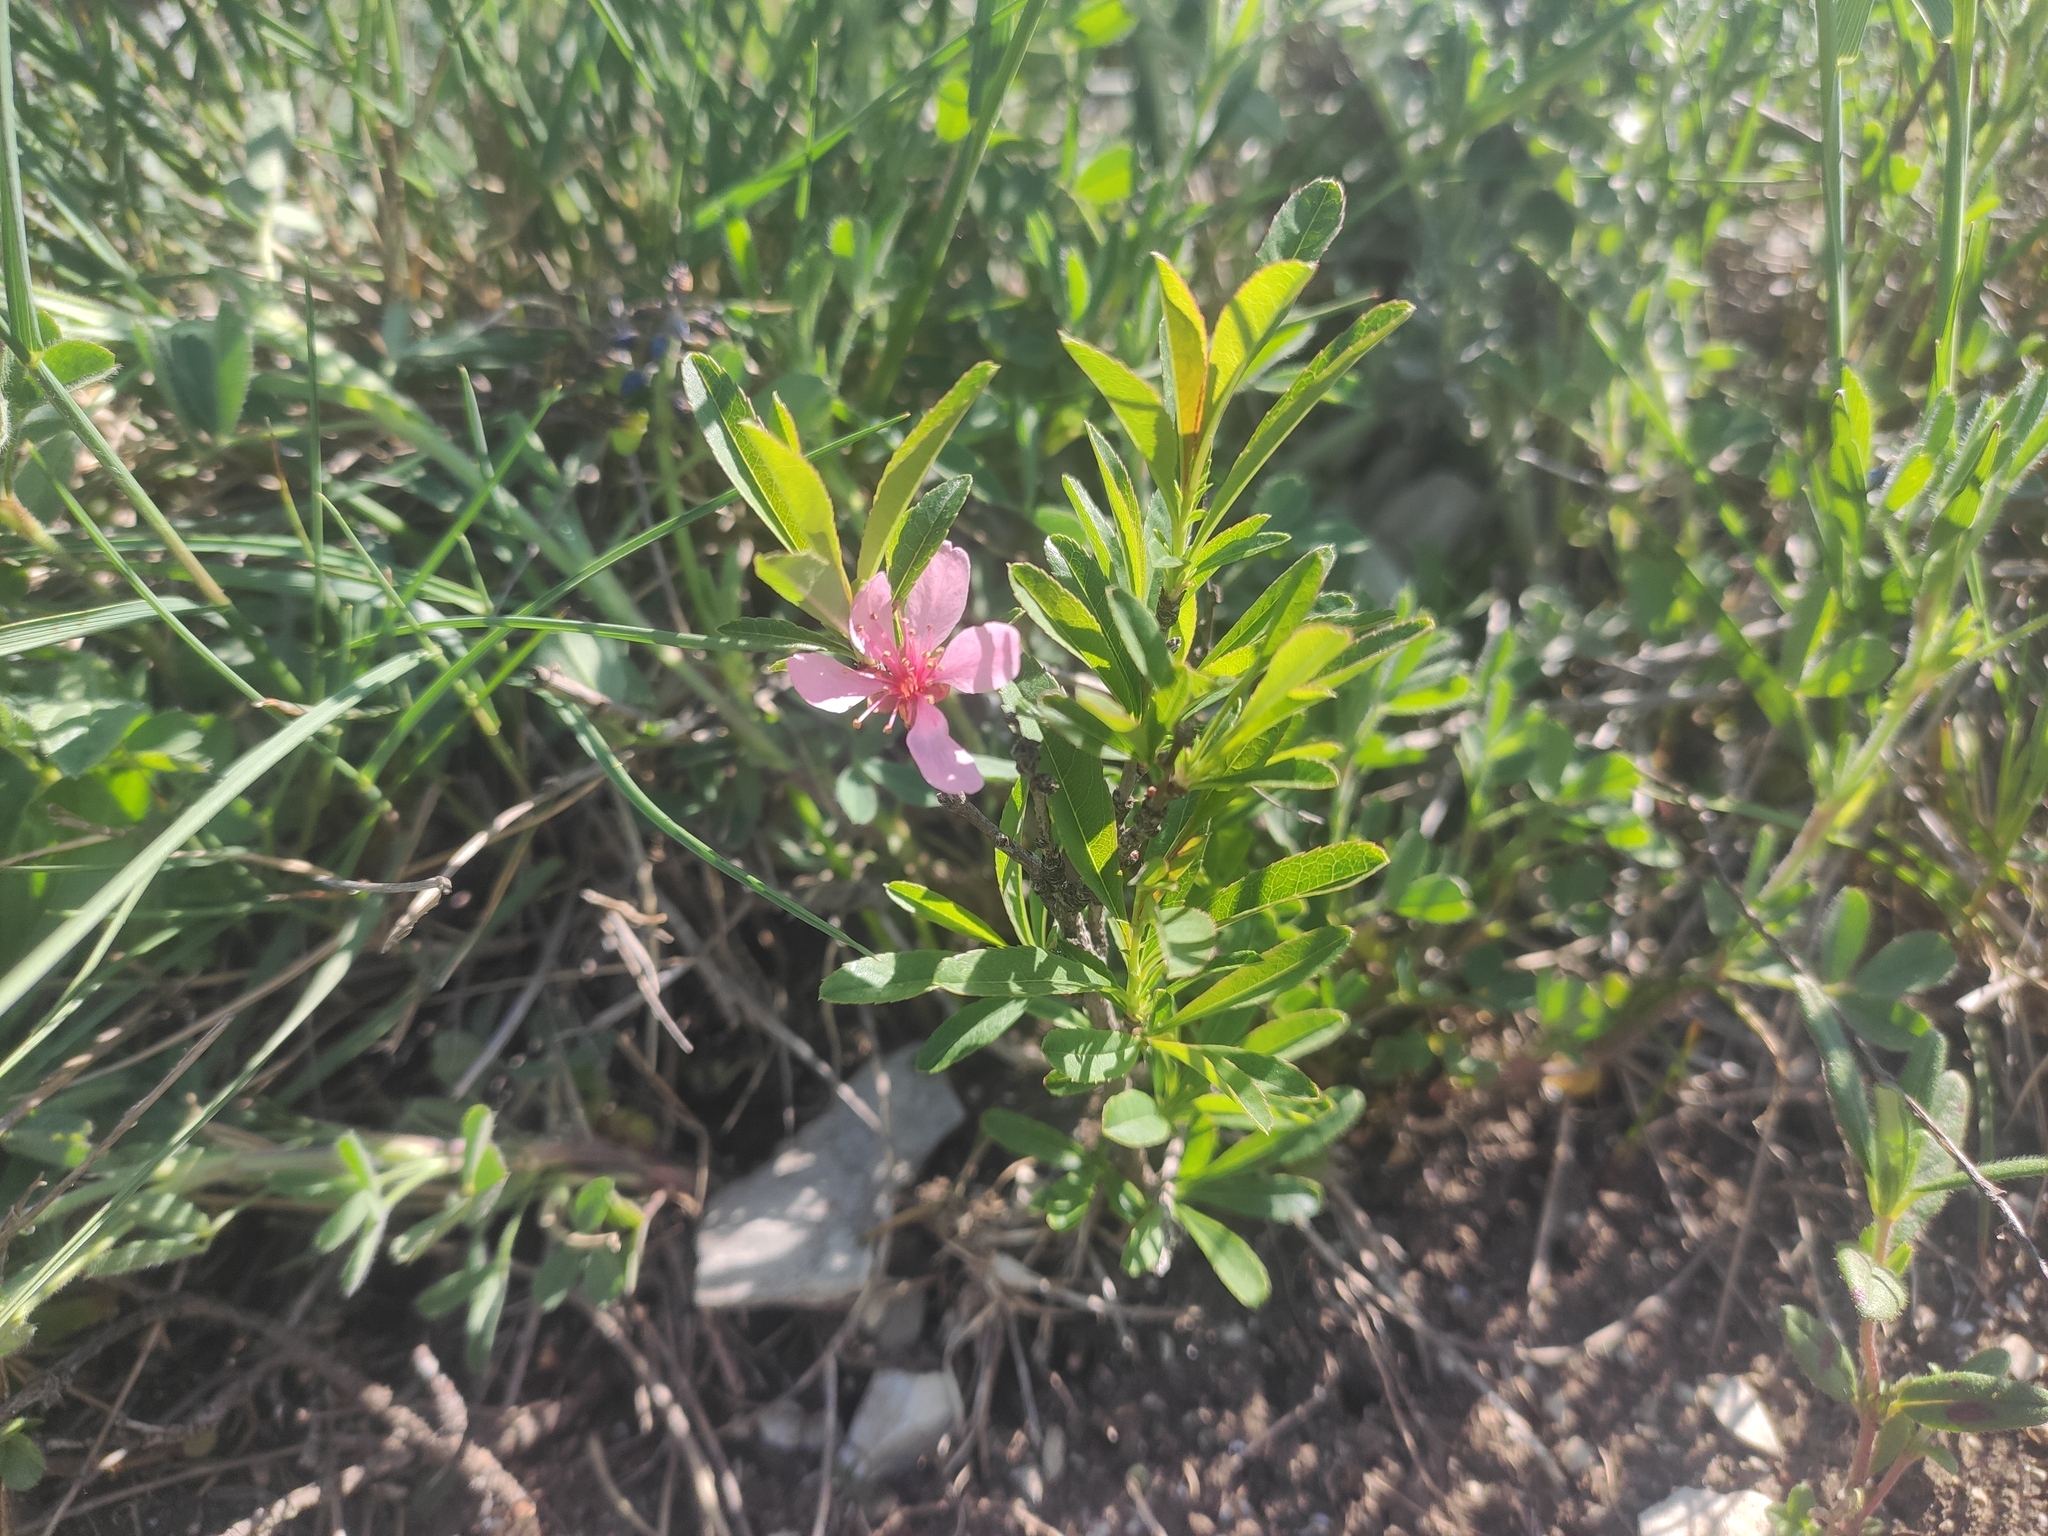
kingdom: Plantae
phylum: Tracheophyta
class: Magnoliopsida
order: Rosales
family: Rosaceae
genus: Prunus
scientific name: Prunus tenella
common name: Dwarf russian almond
